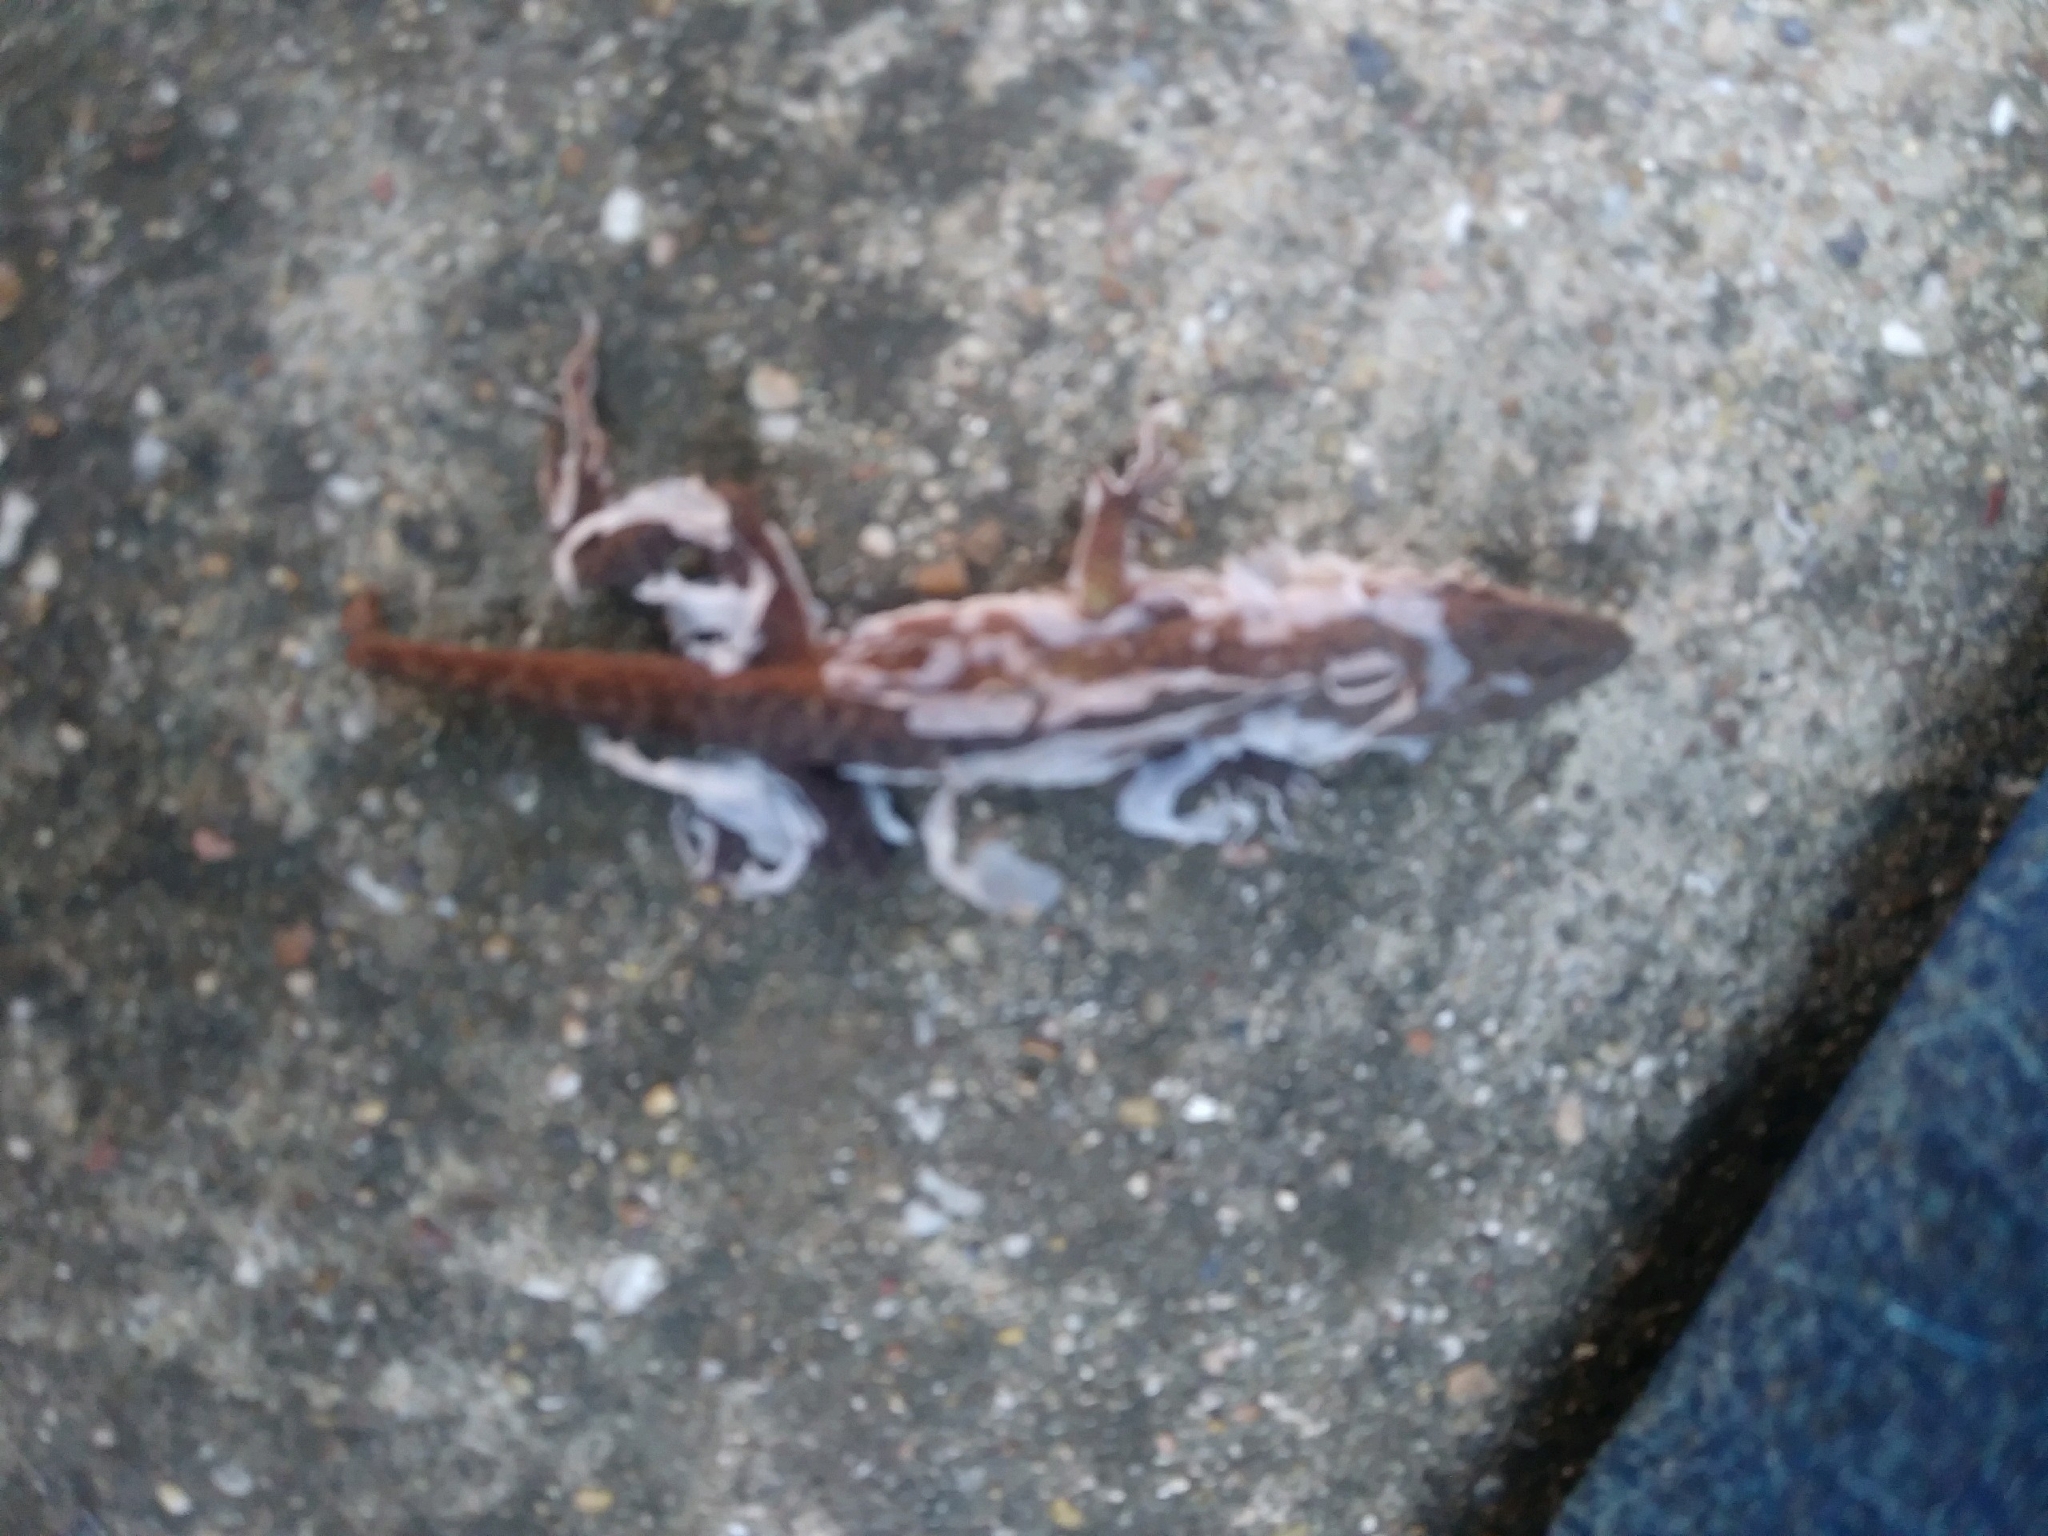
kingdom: Animalia
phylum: Chordata
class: Squamata
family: Dactyloidae
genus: Anolis
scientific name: Anolis carolinensis
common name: Green anole
